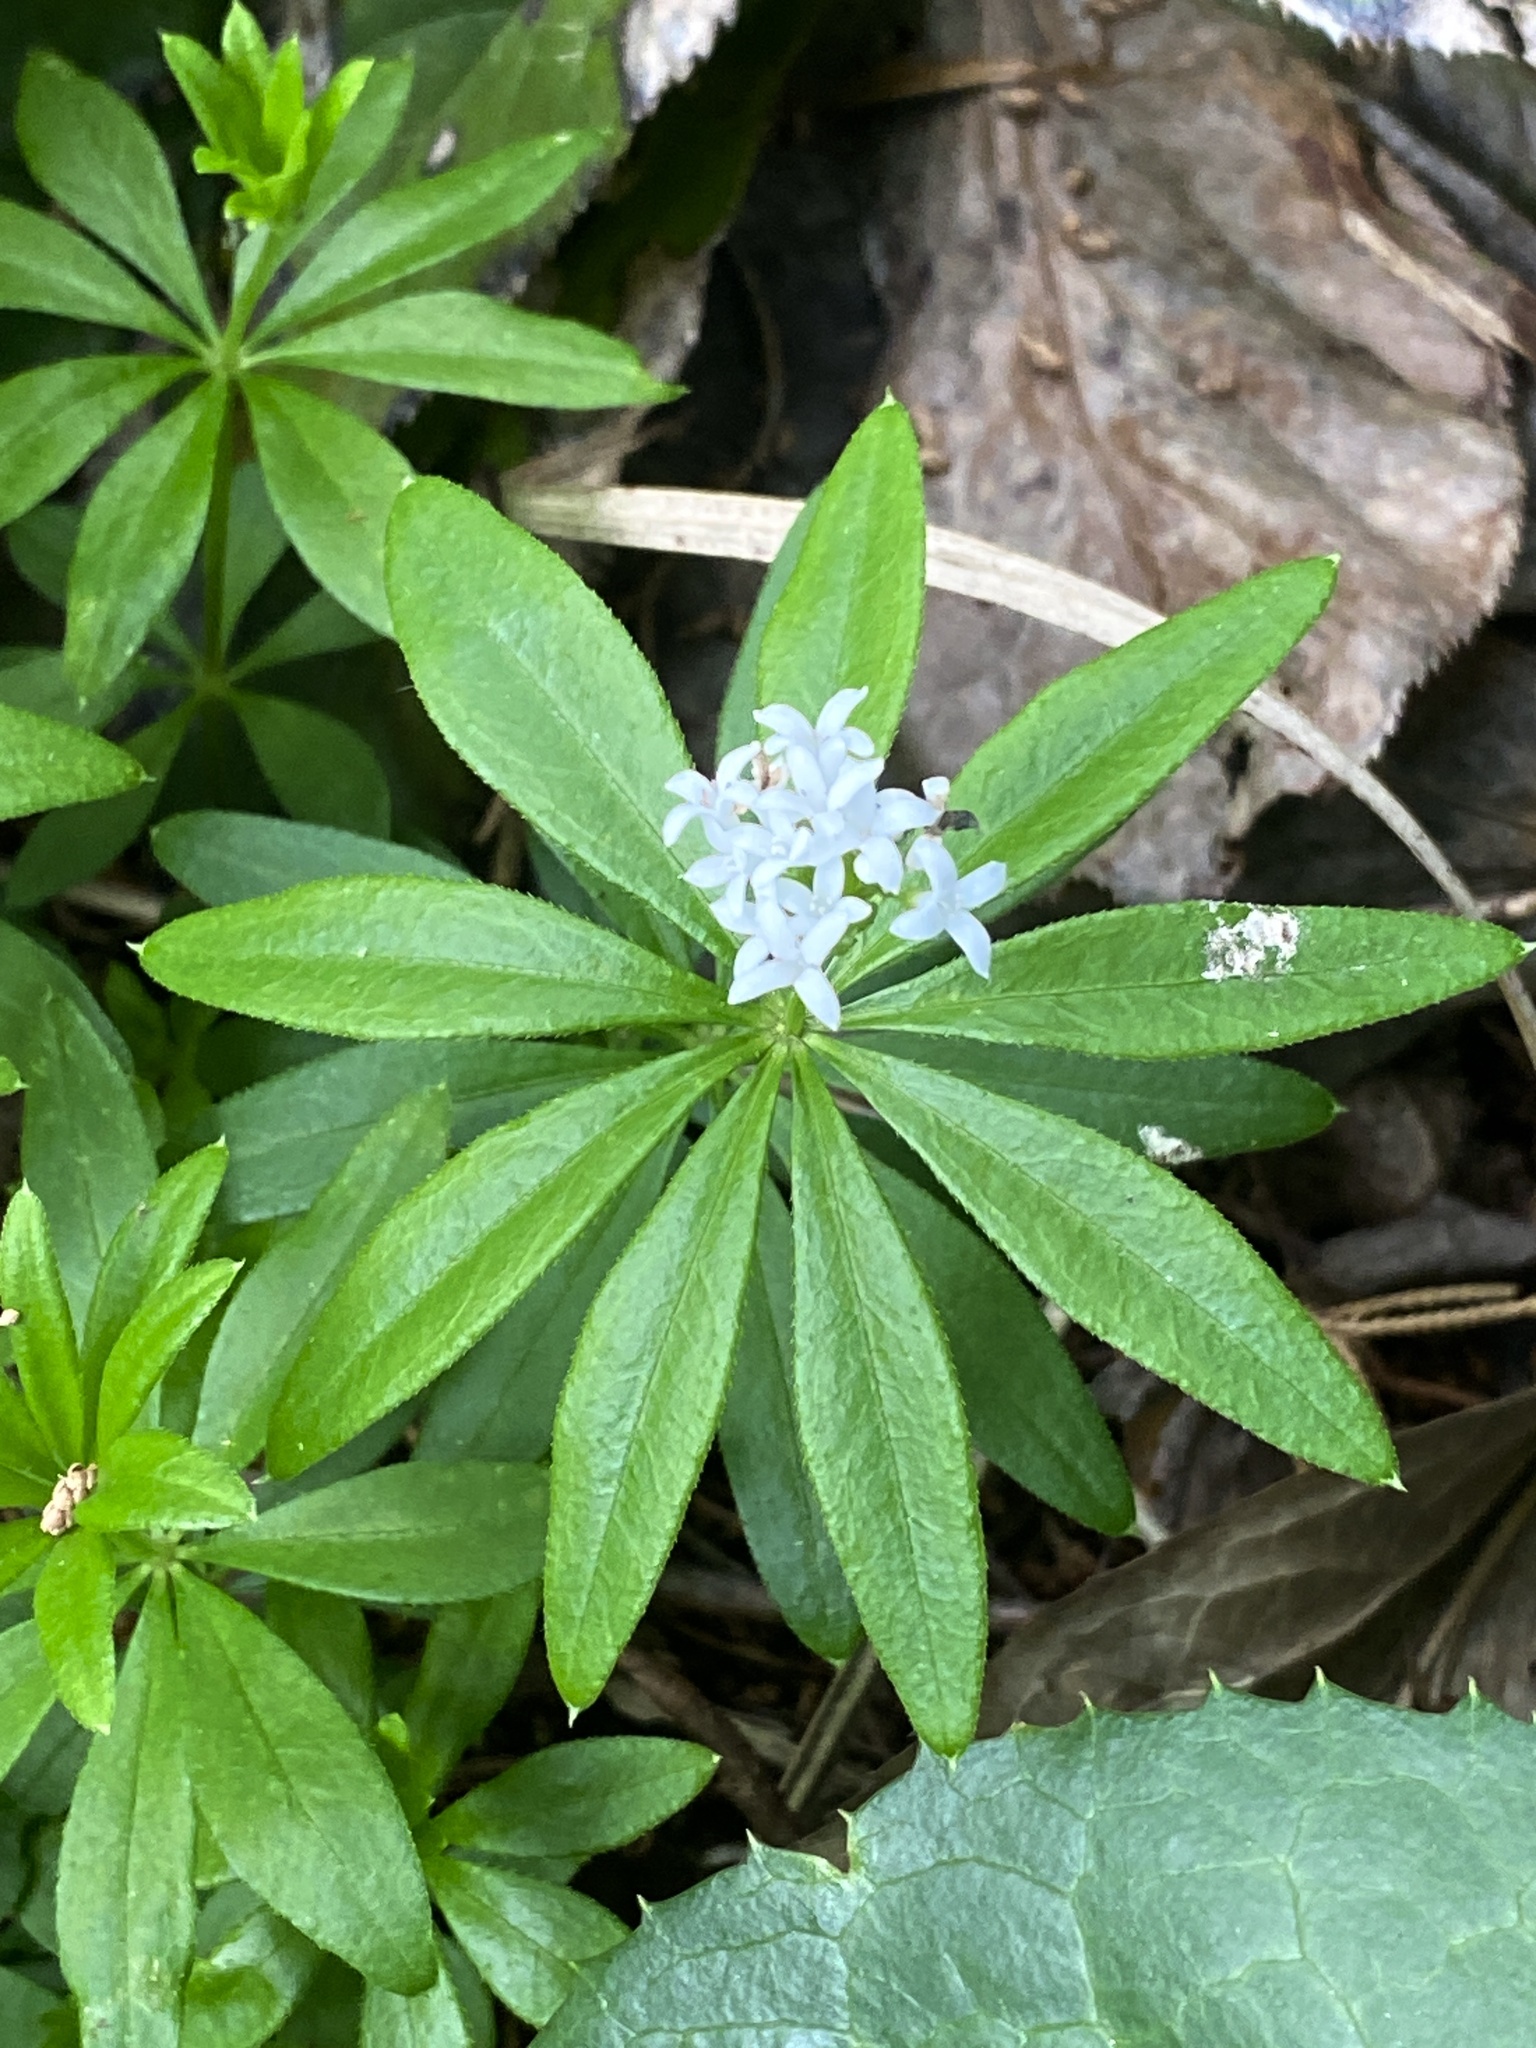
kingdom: Plantae
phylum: Tracheophyta
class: Magnoliopsida
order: Gentianales
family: Rubiaceae
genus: Galium
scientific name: Galium odoratum
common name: Sweet woodruff
